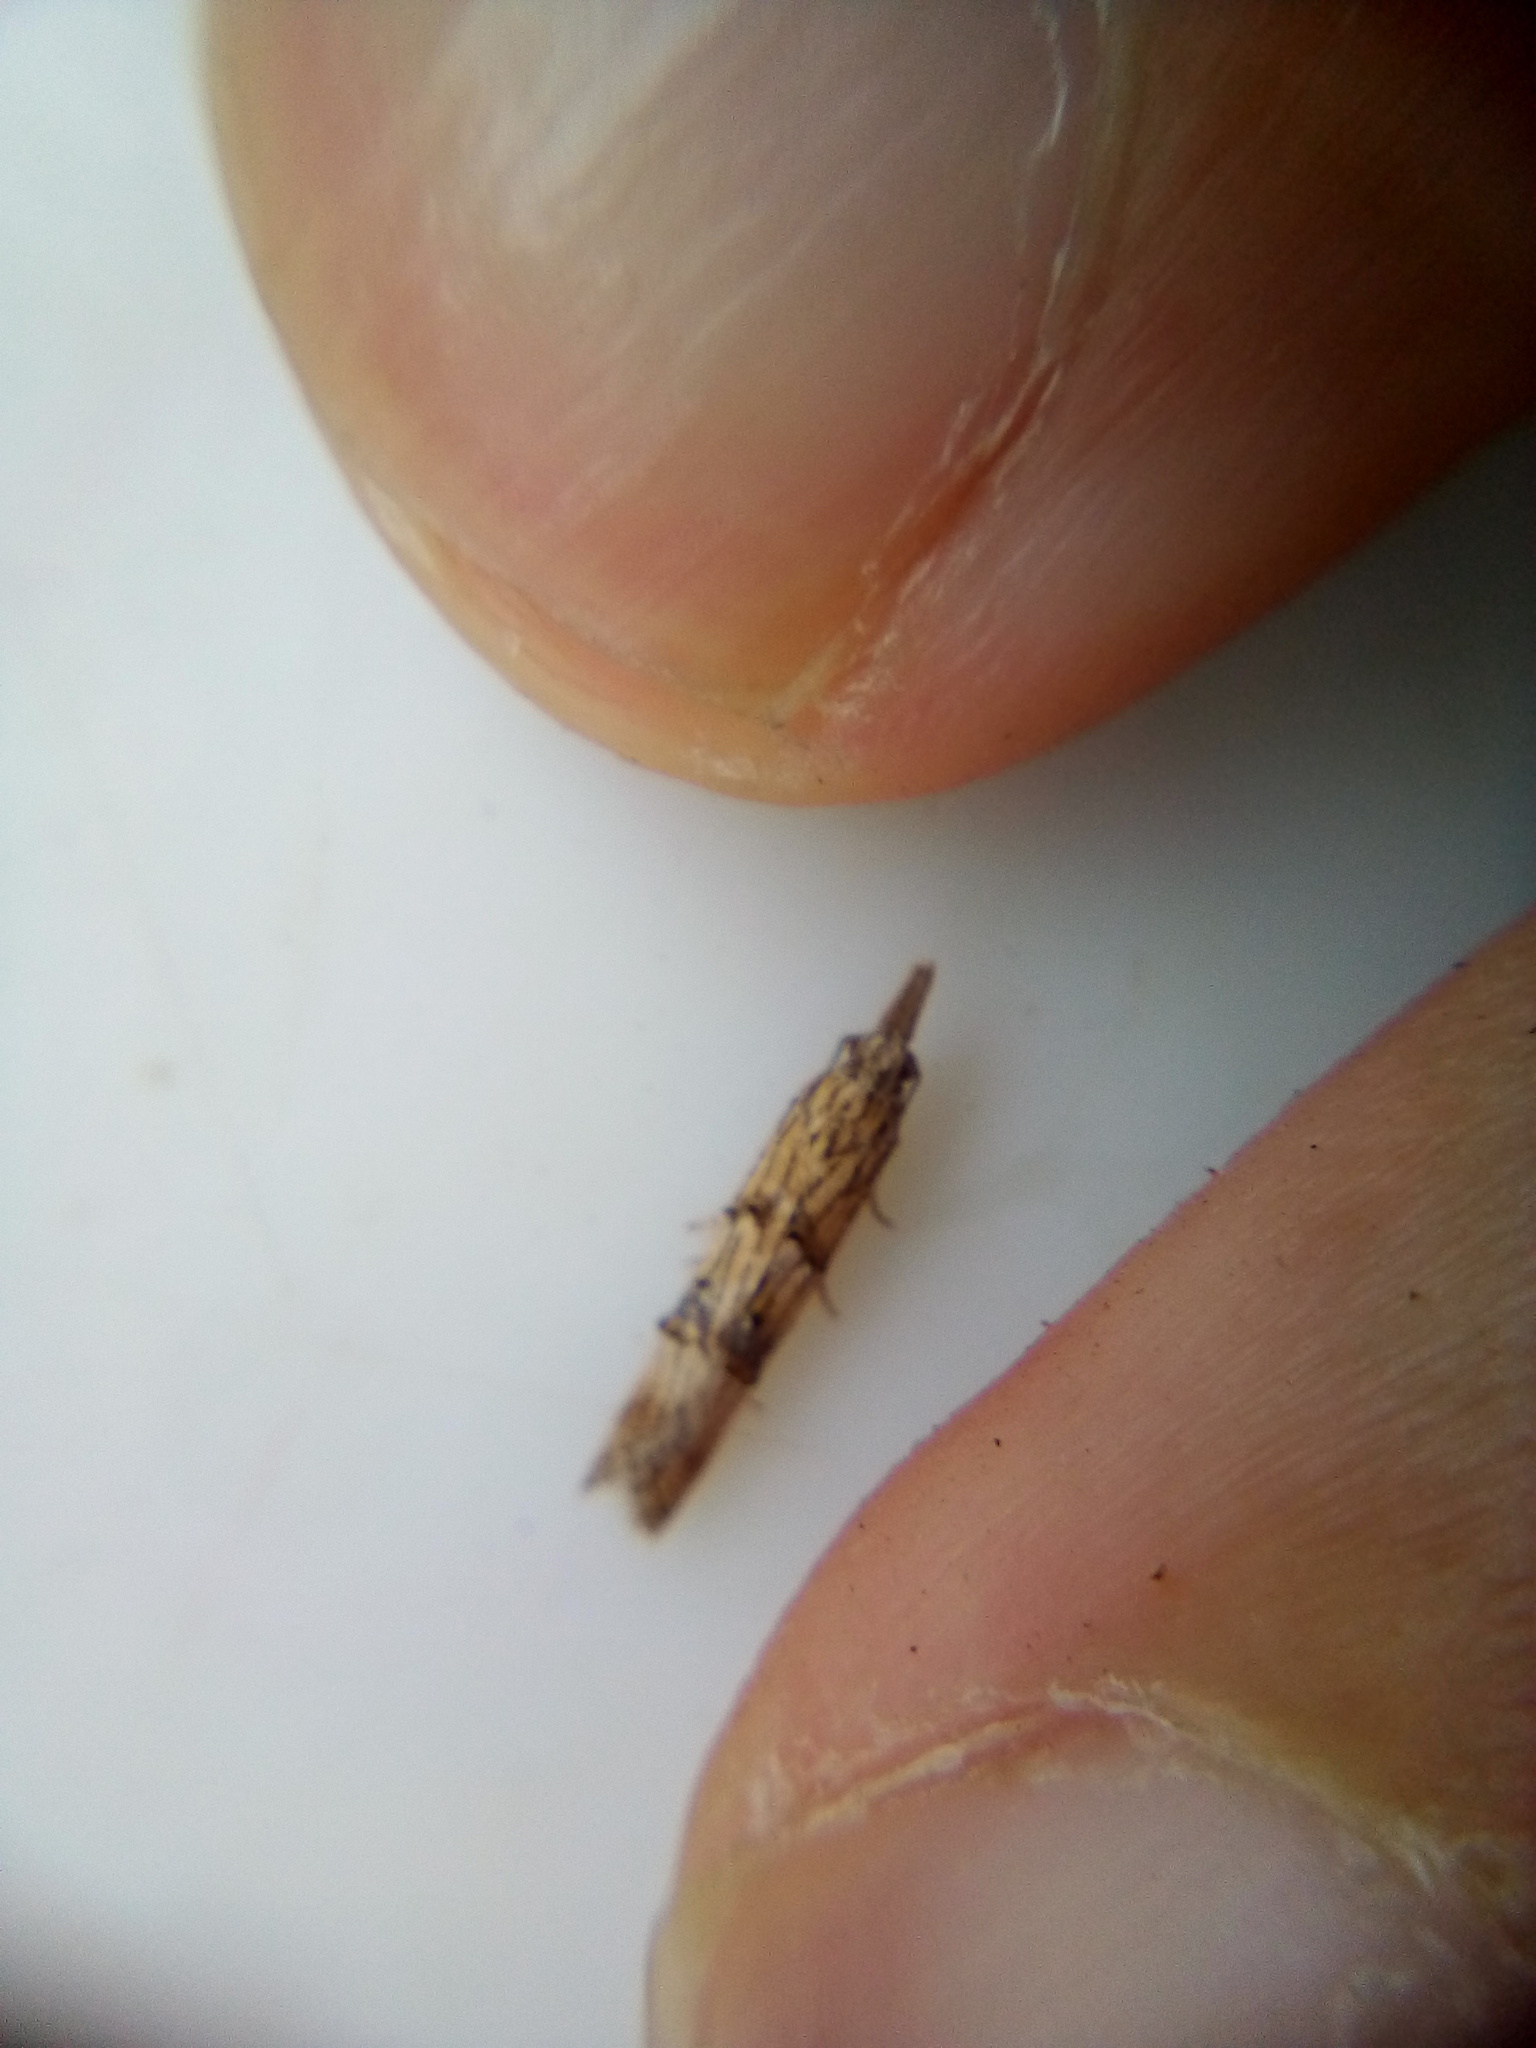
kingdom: Animalia
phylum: Arthropoda
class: Insecta
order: Lepidoptera
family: Carposinidae
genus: Carposina
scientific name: Carposina neurophorella
